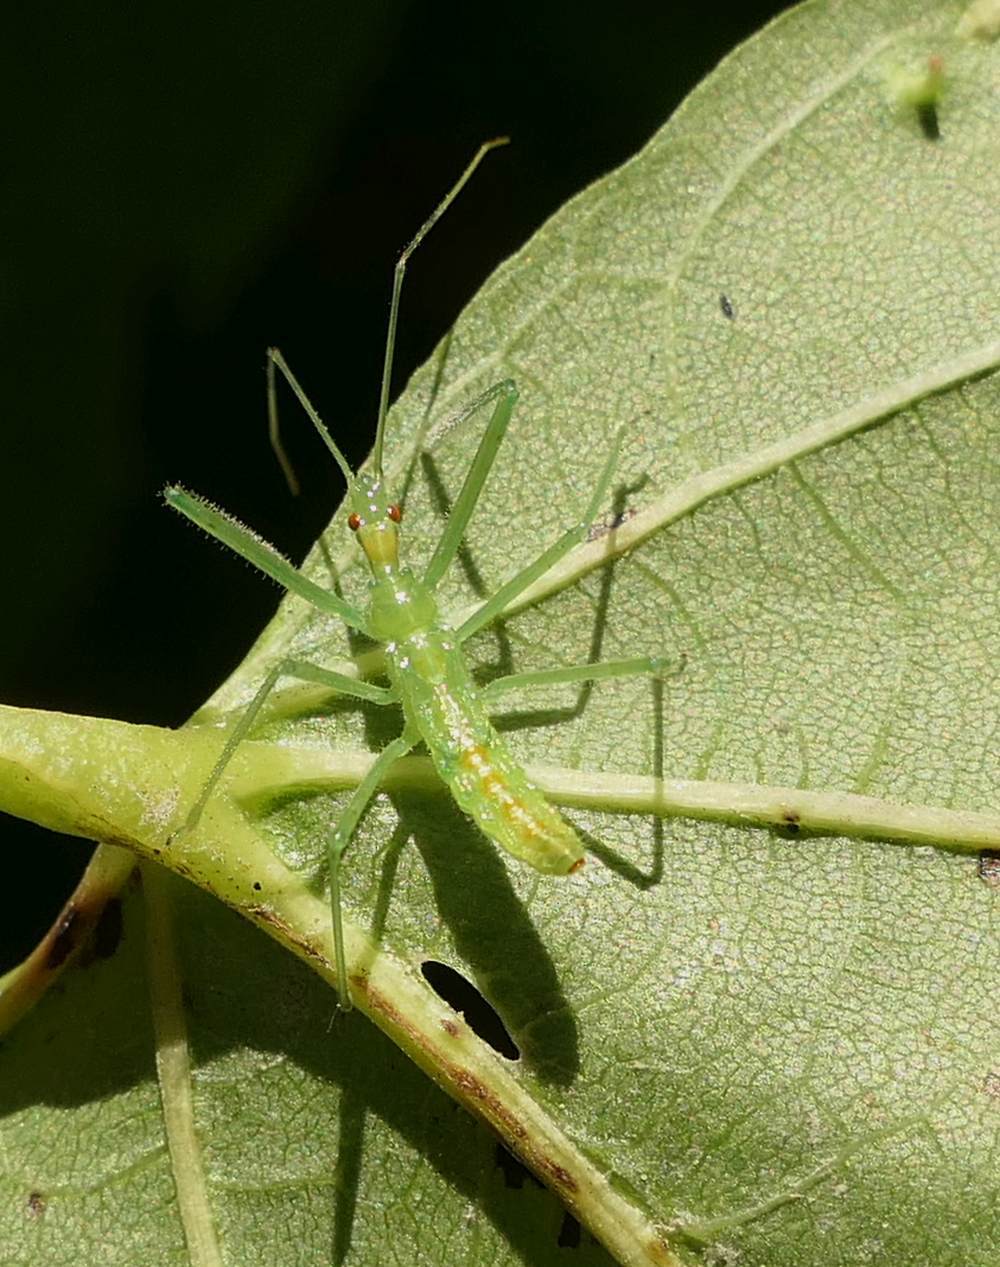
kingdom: Animalia
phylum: Arthropoda
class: Insecta
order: Hemiptera
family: Reduviidae
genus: Zelus
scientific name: Zelus luridus
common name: Pale green assassin bug
